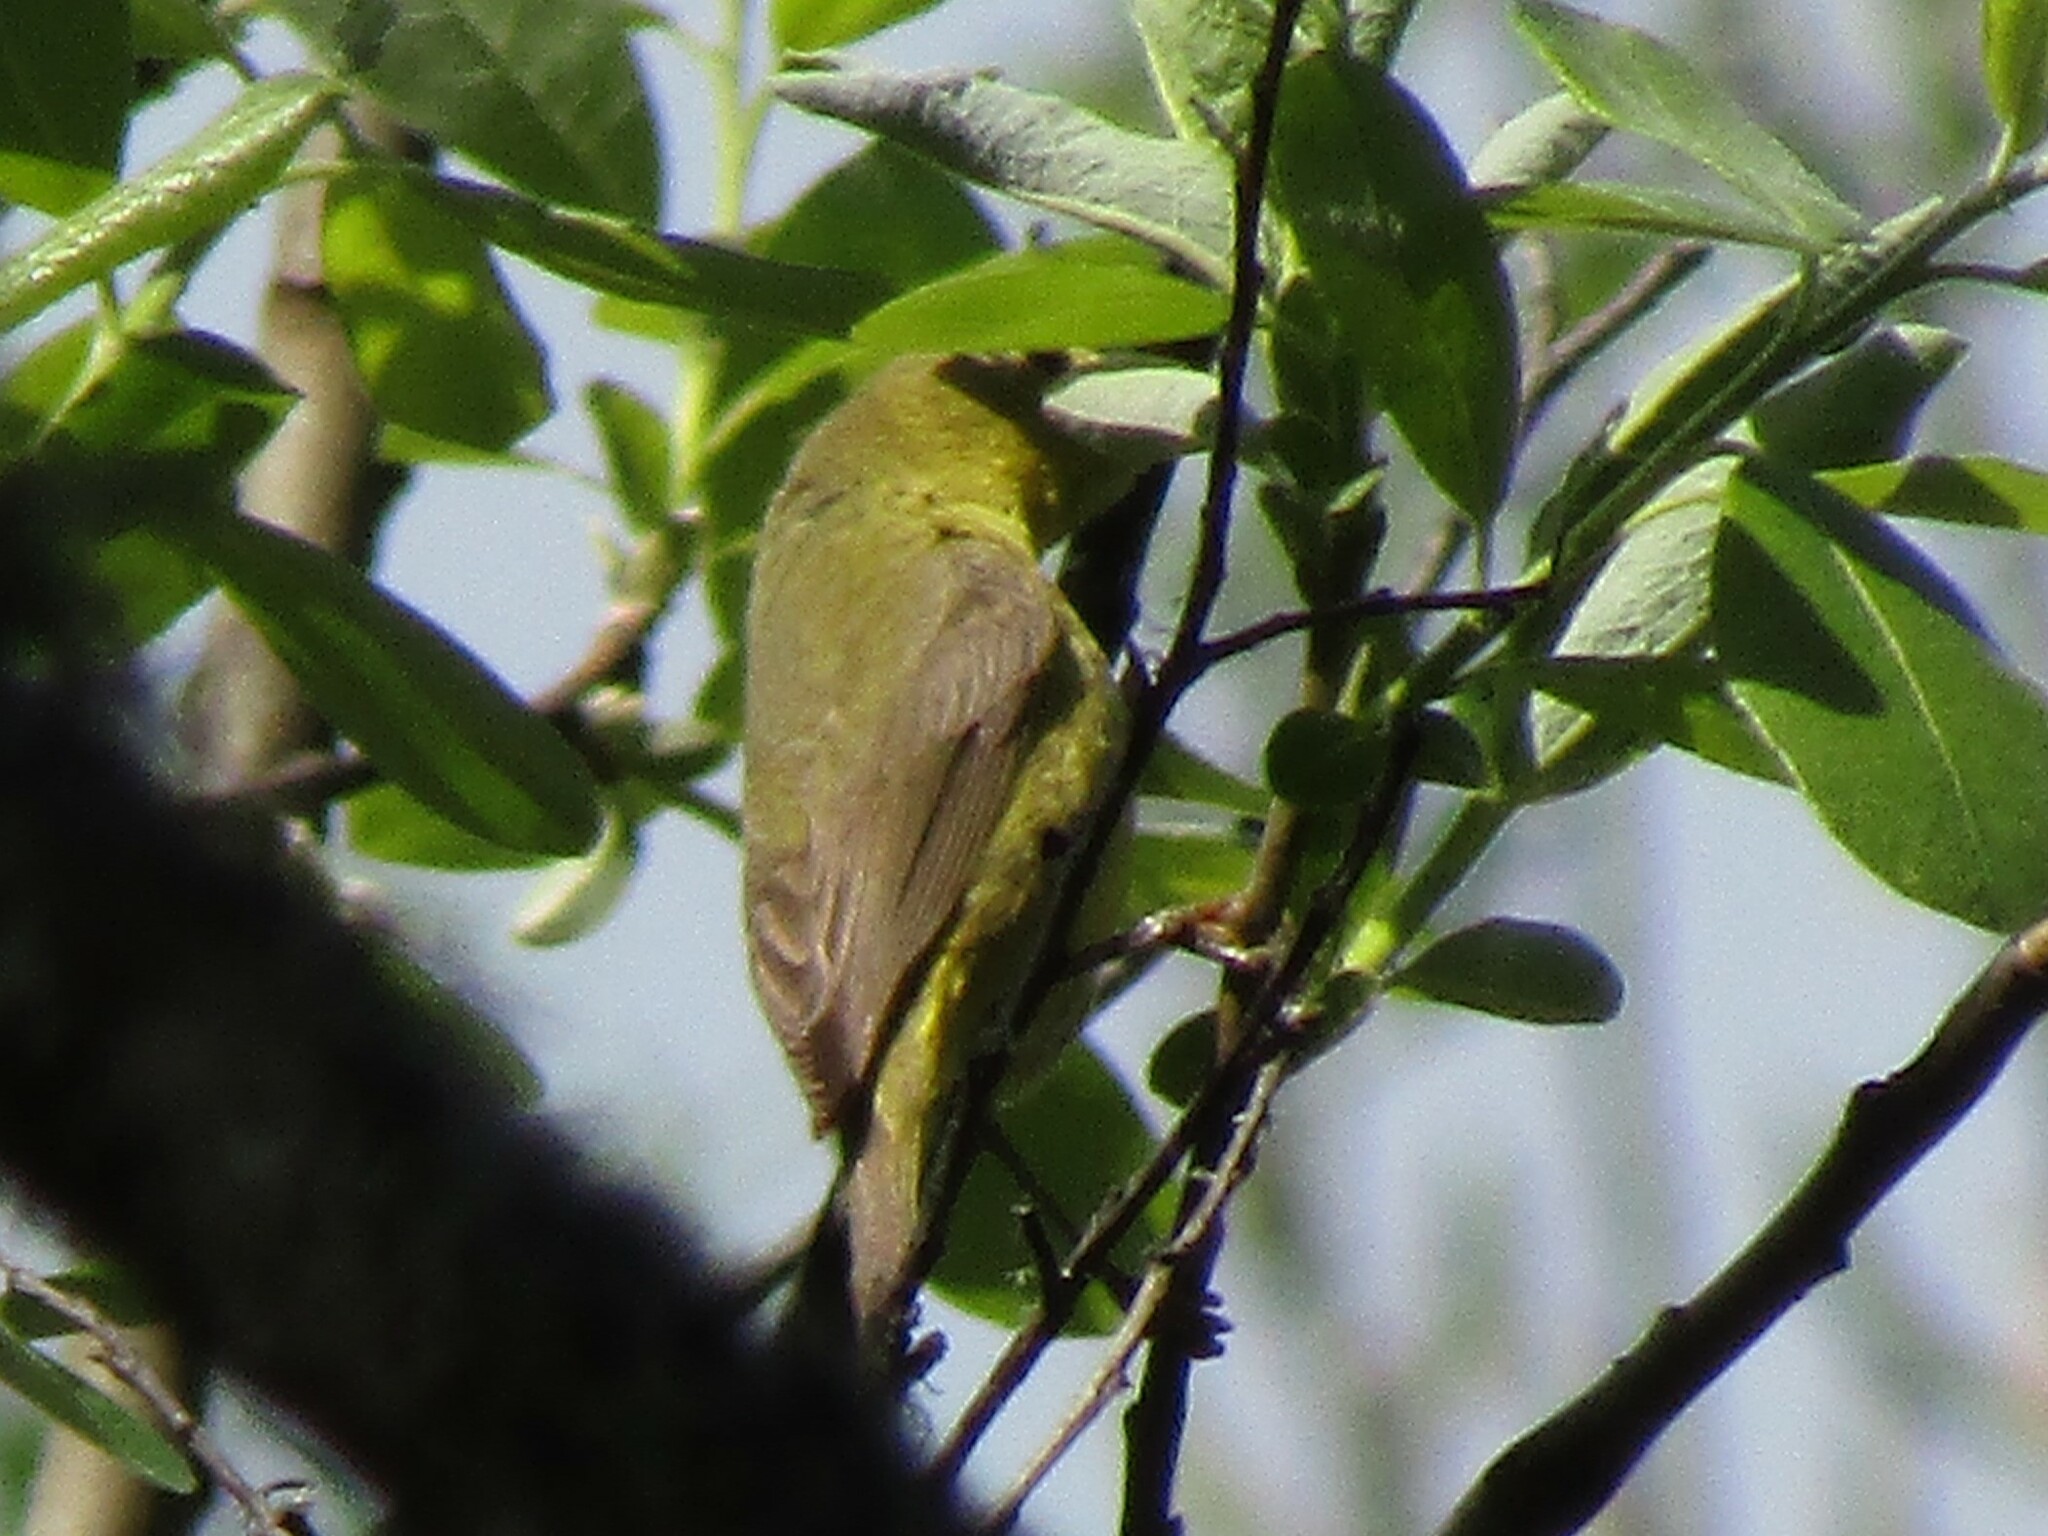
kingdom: Animalia
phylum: Chordata
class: Aves
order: Passeriformes
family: Parulidae
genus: Leiothlypis
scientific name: Leiothlypis celata
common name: Orange-crowned warbler
